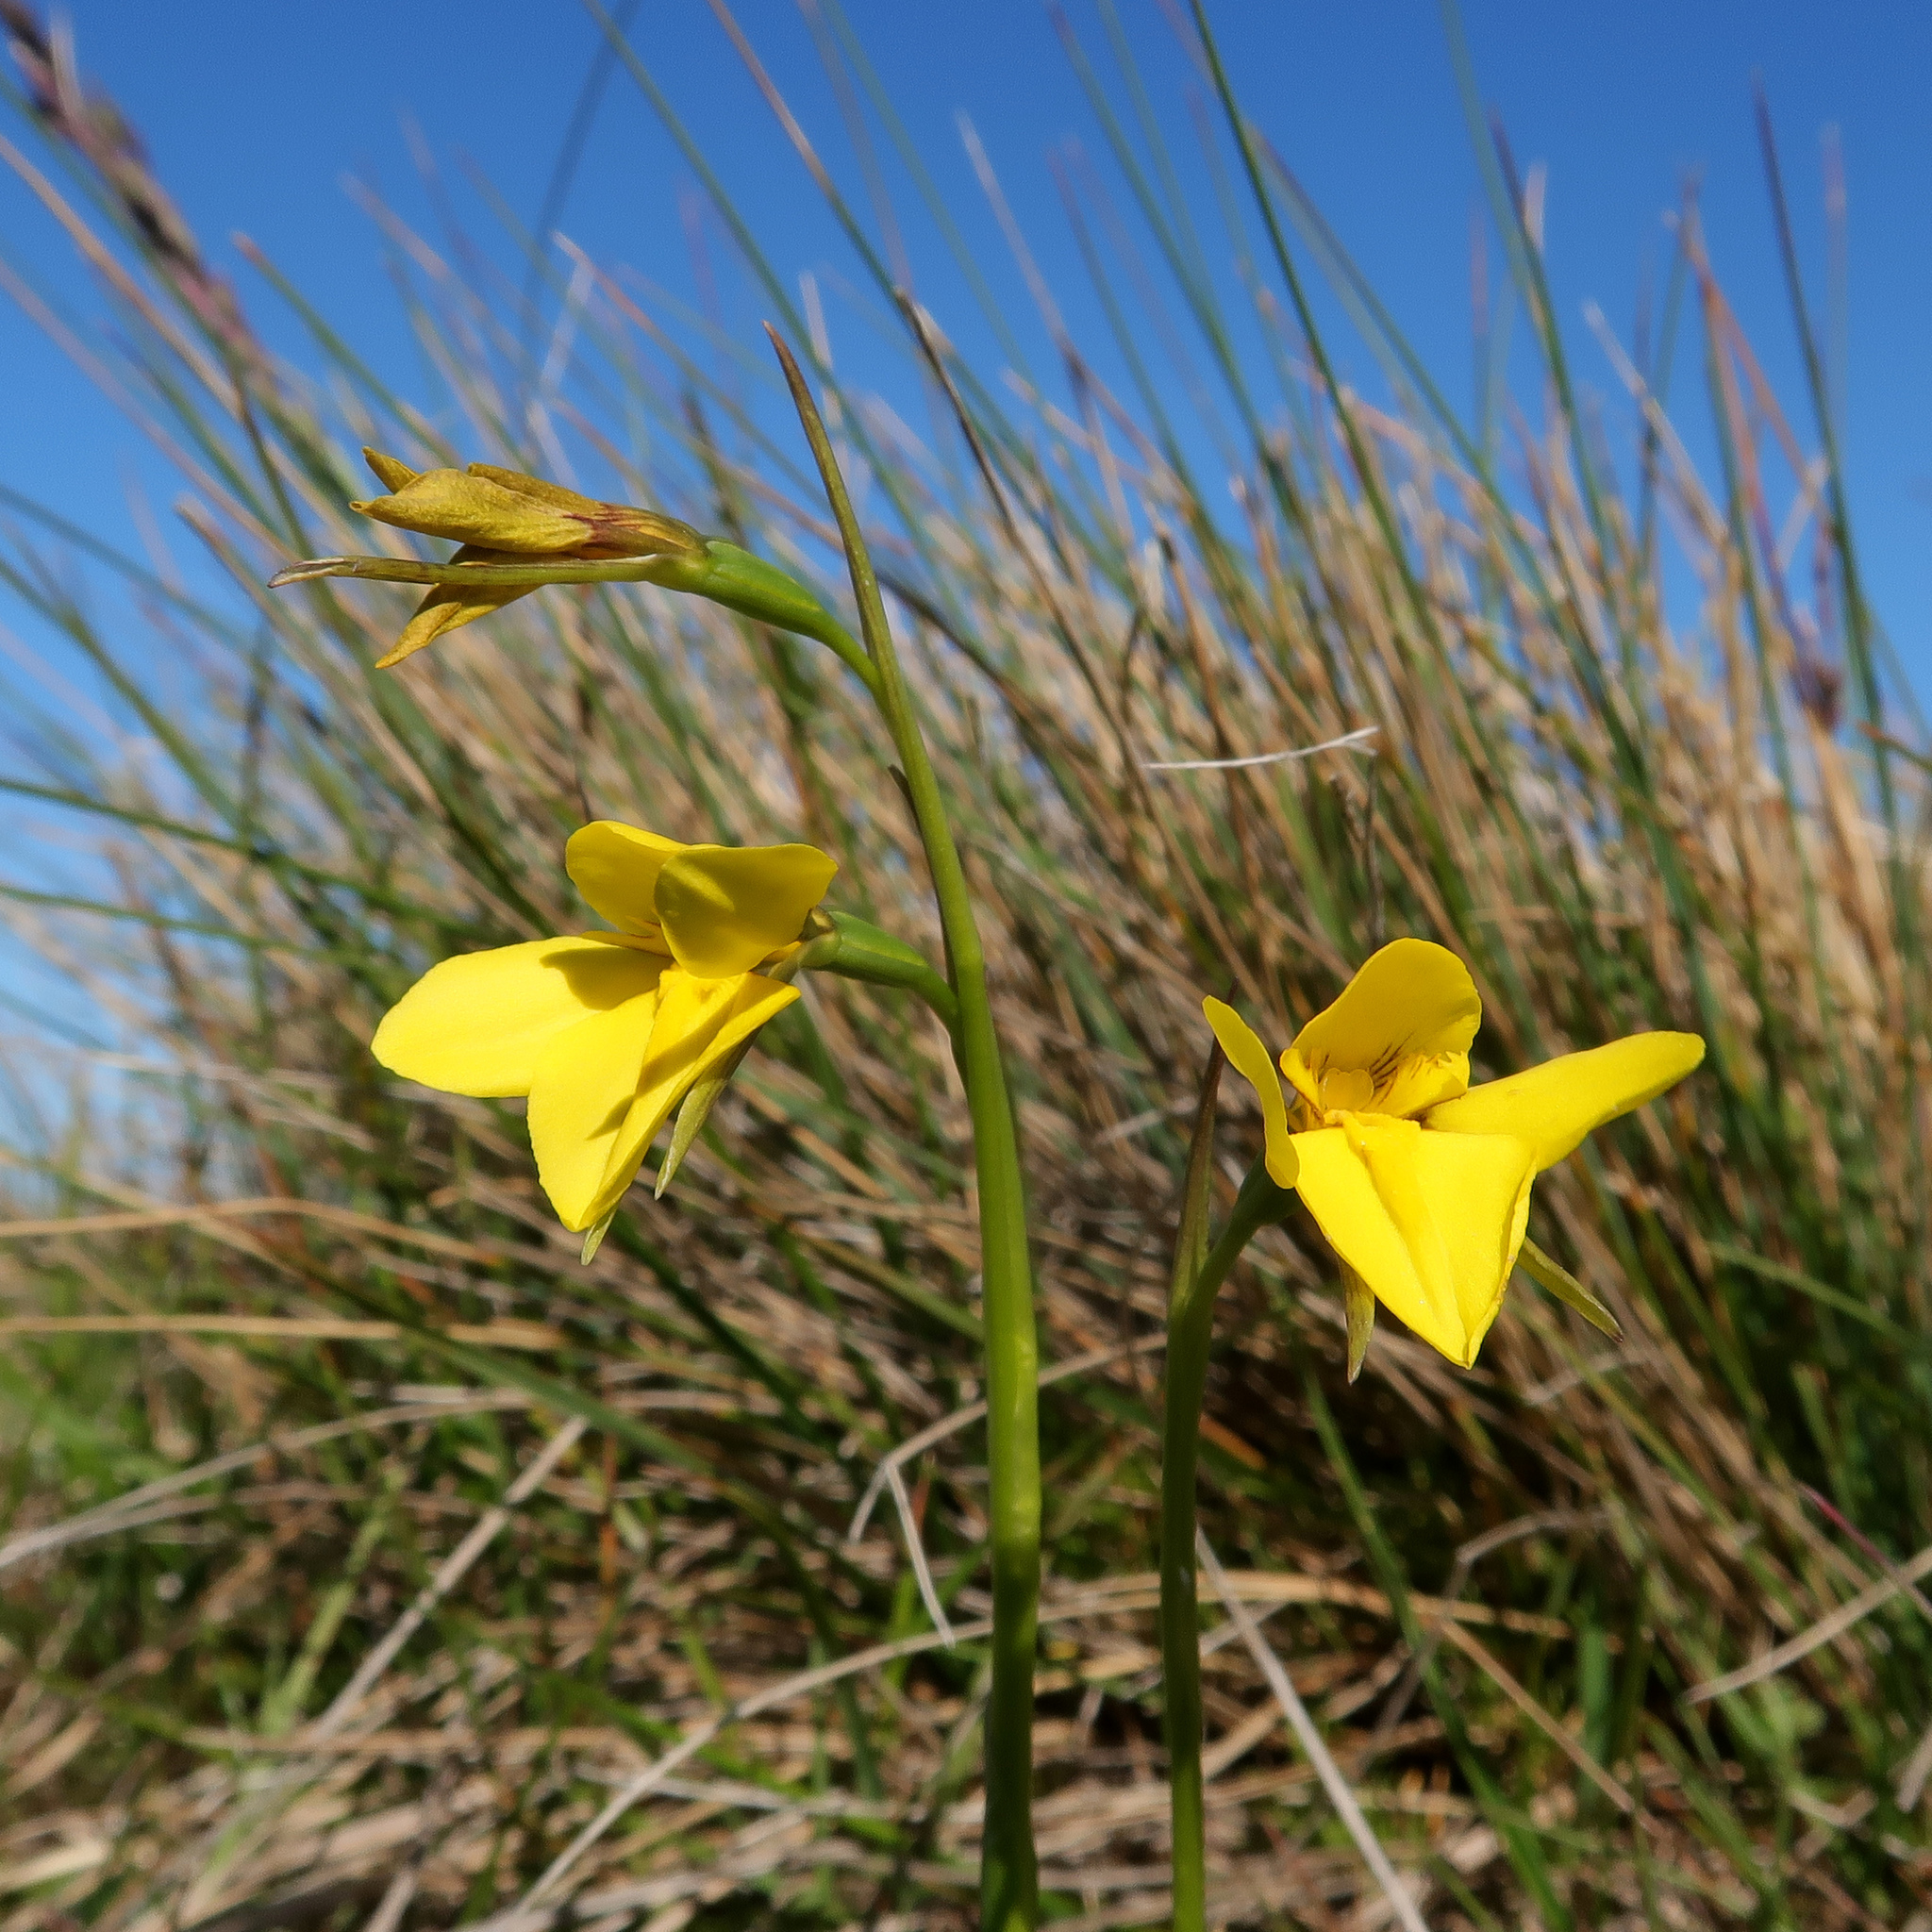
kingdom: Plantae
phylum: Tracheophyta
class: Liliopsida
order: Asparagales
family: Orchidaceae
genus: Diuris
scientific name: Diuris monticola
